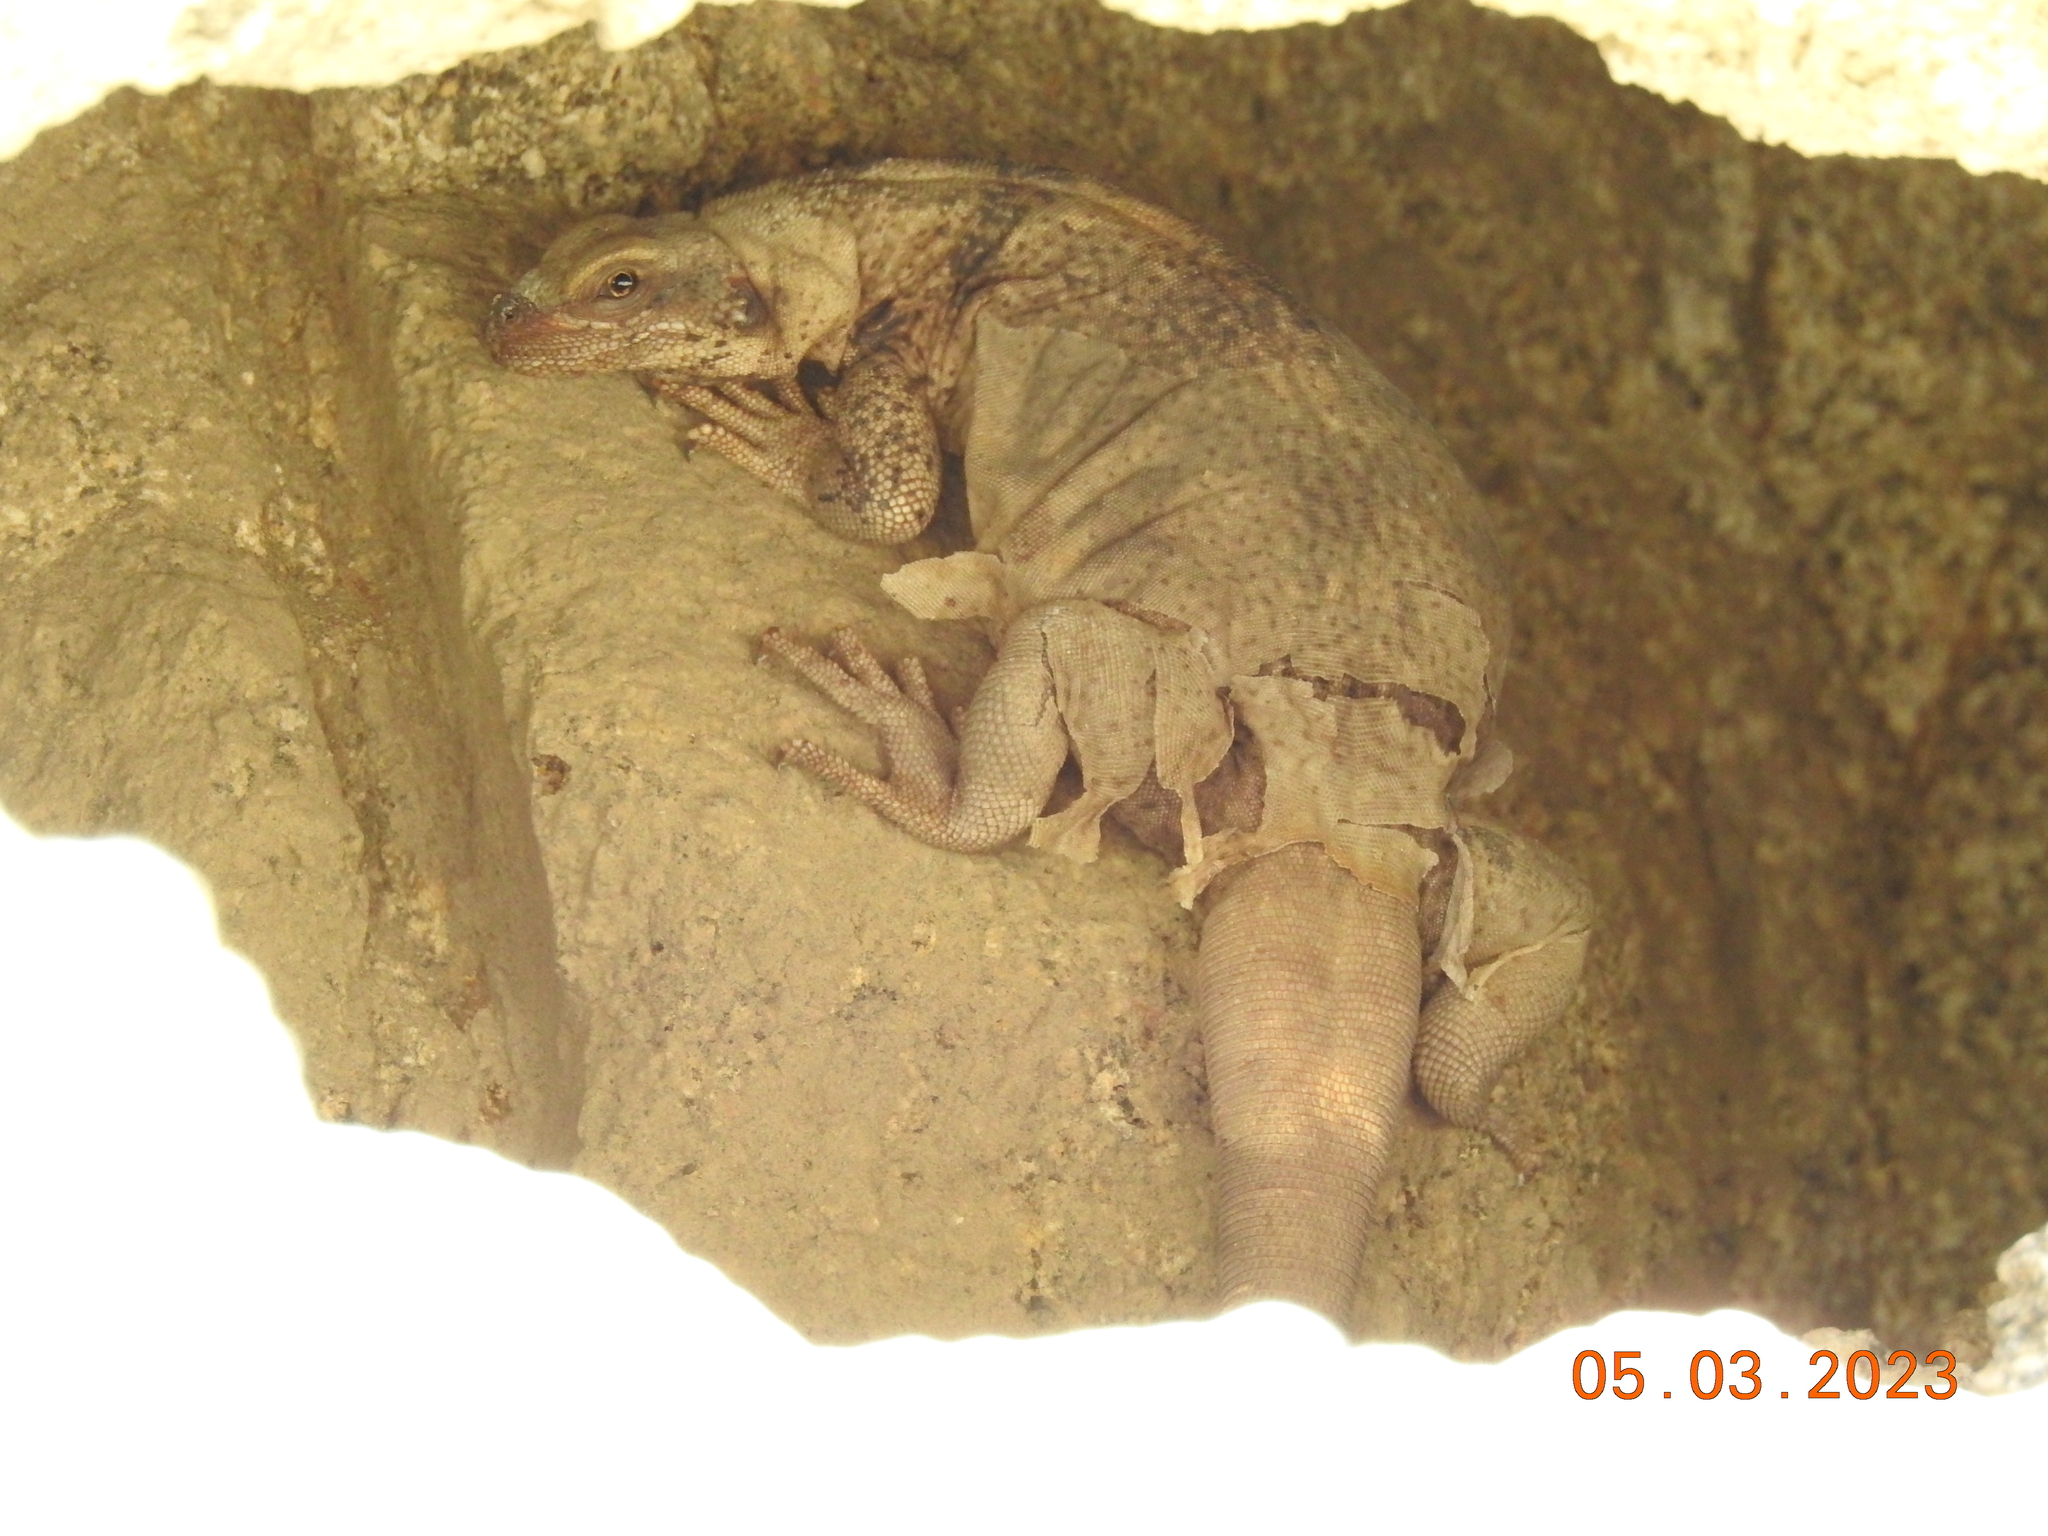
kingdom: Animalia
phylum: Chordata
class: Squamata
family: Iguanidae
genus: Sauromalus
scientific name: Sauromalus ater
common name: Northern chuckwalla
